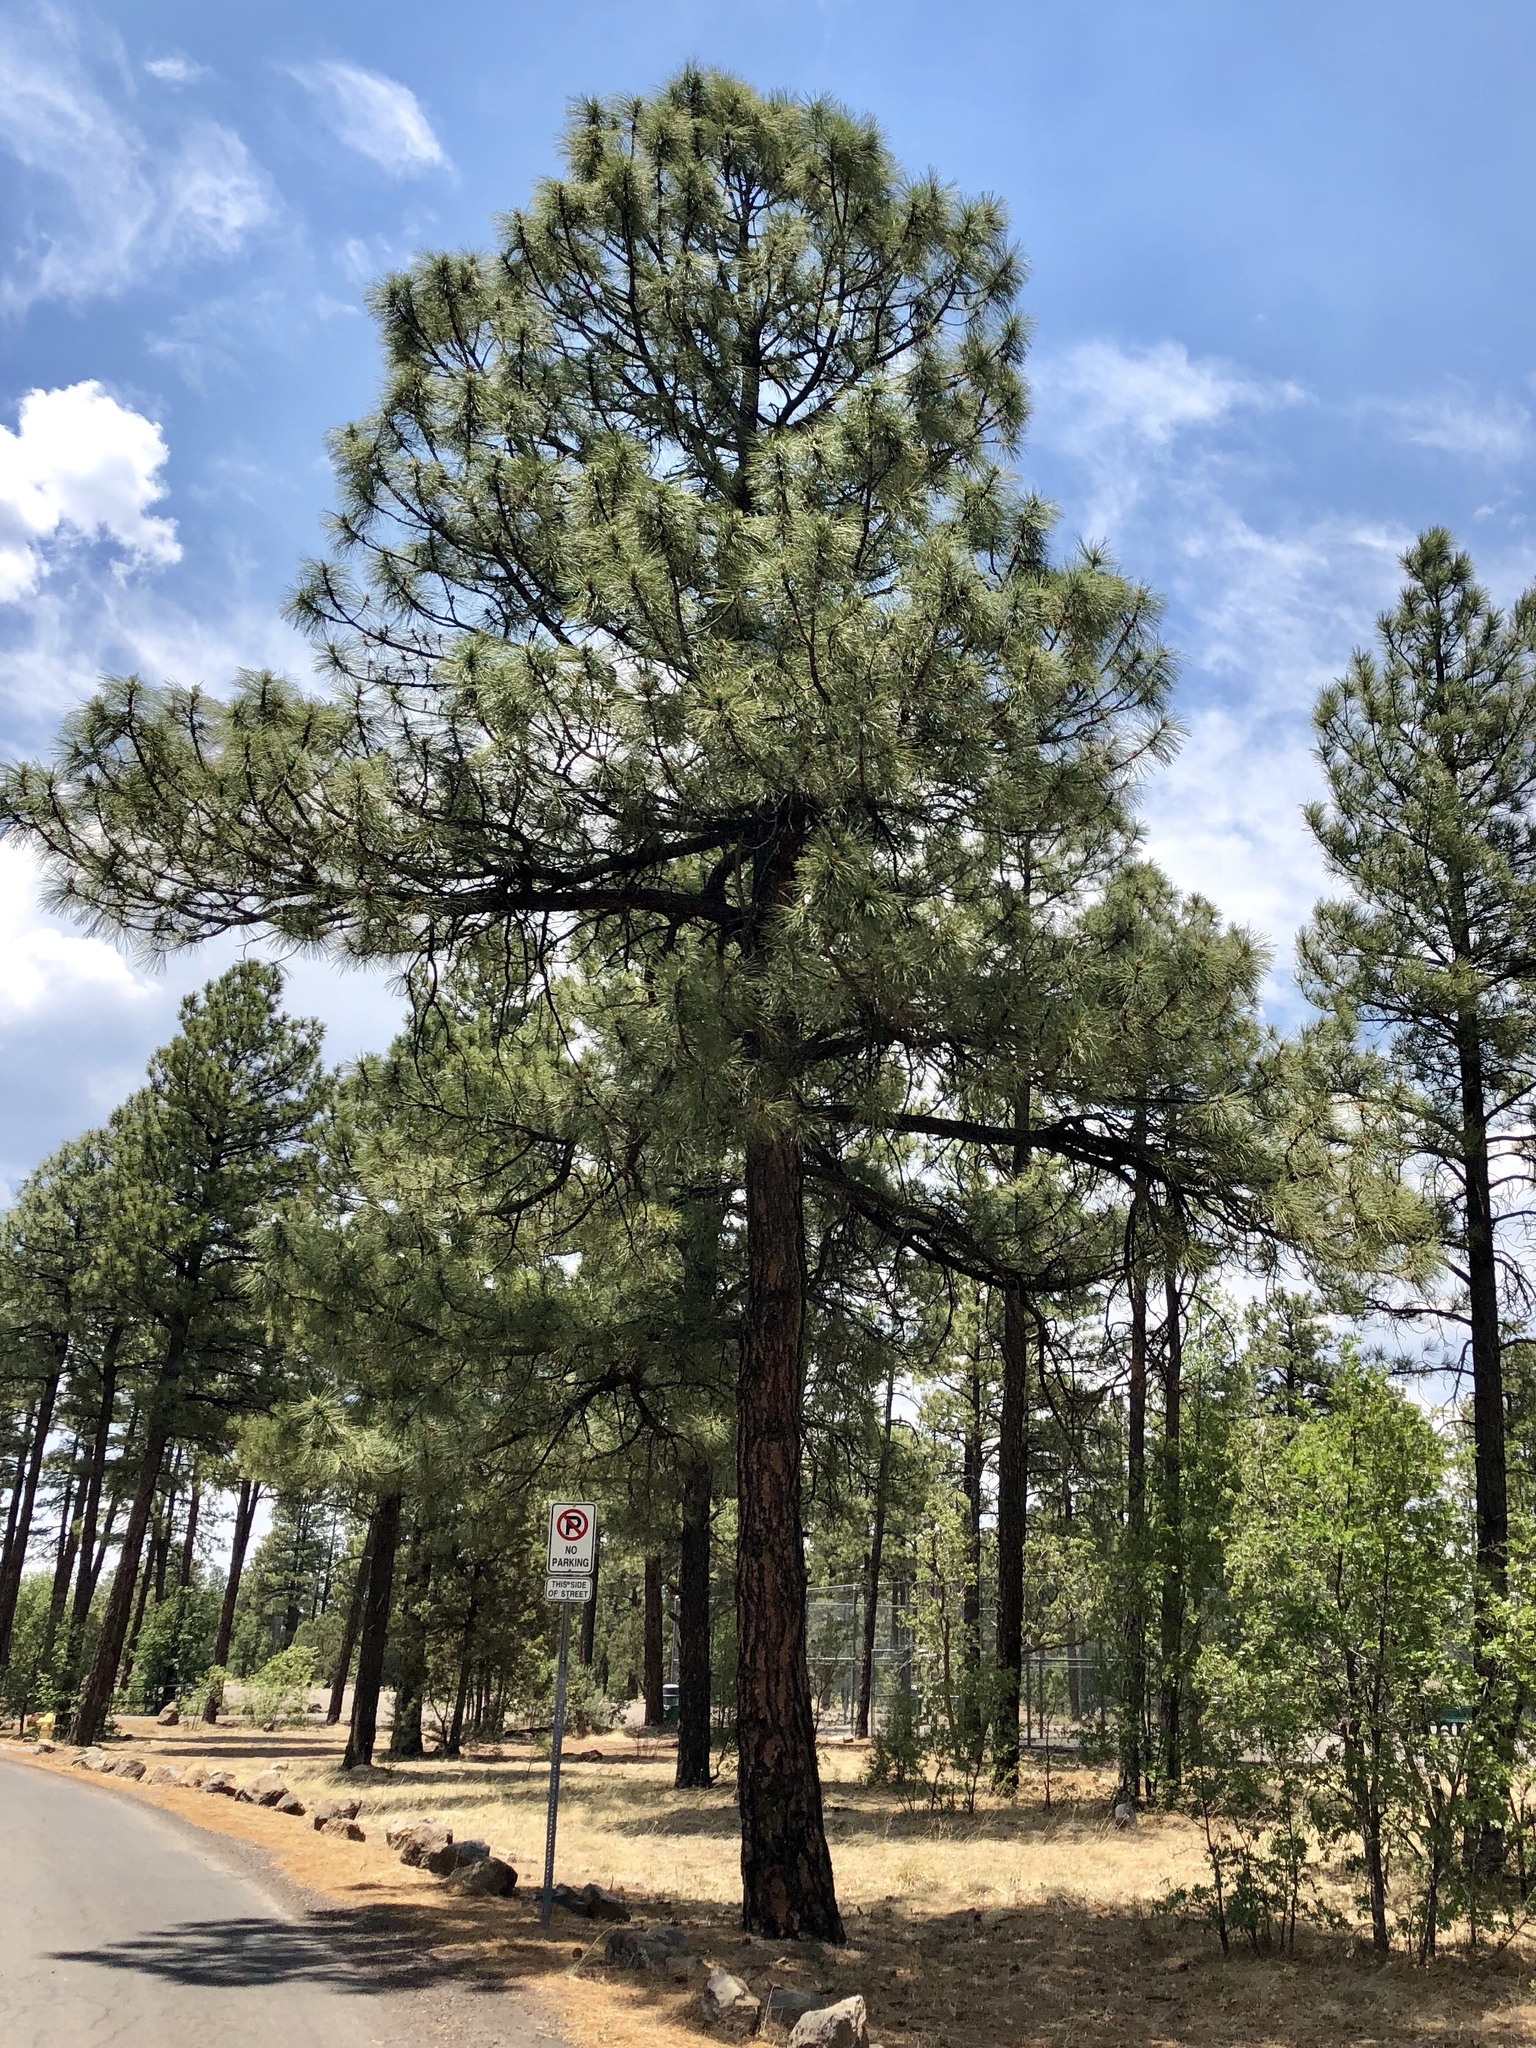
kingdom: Plantae
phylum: Tracheophyta
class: Pinopsida
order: Pinales
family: Pinaceae
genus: Pinus
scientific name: Pinus ponderosa
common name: Western yellow-pine
